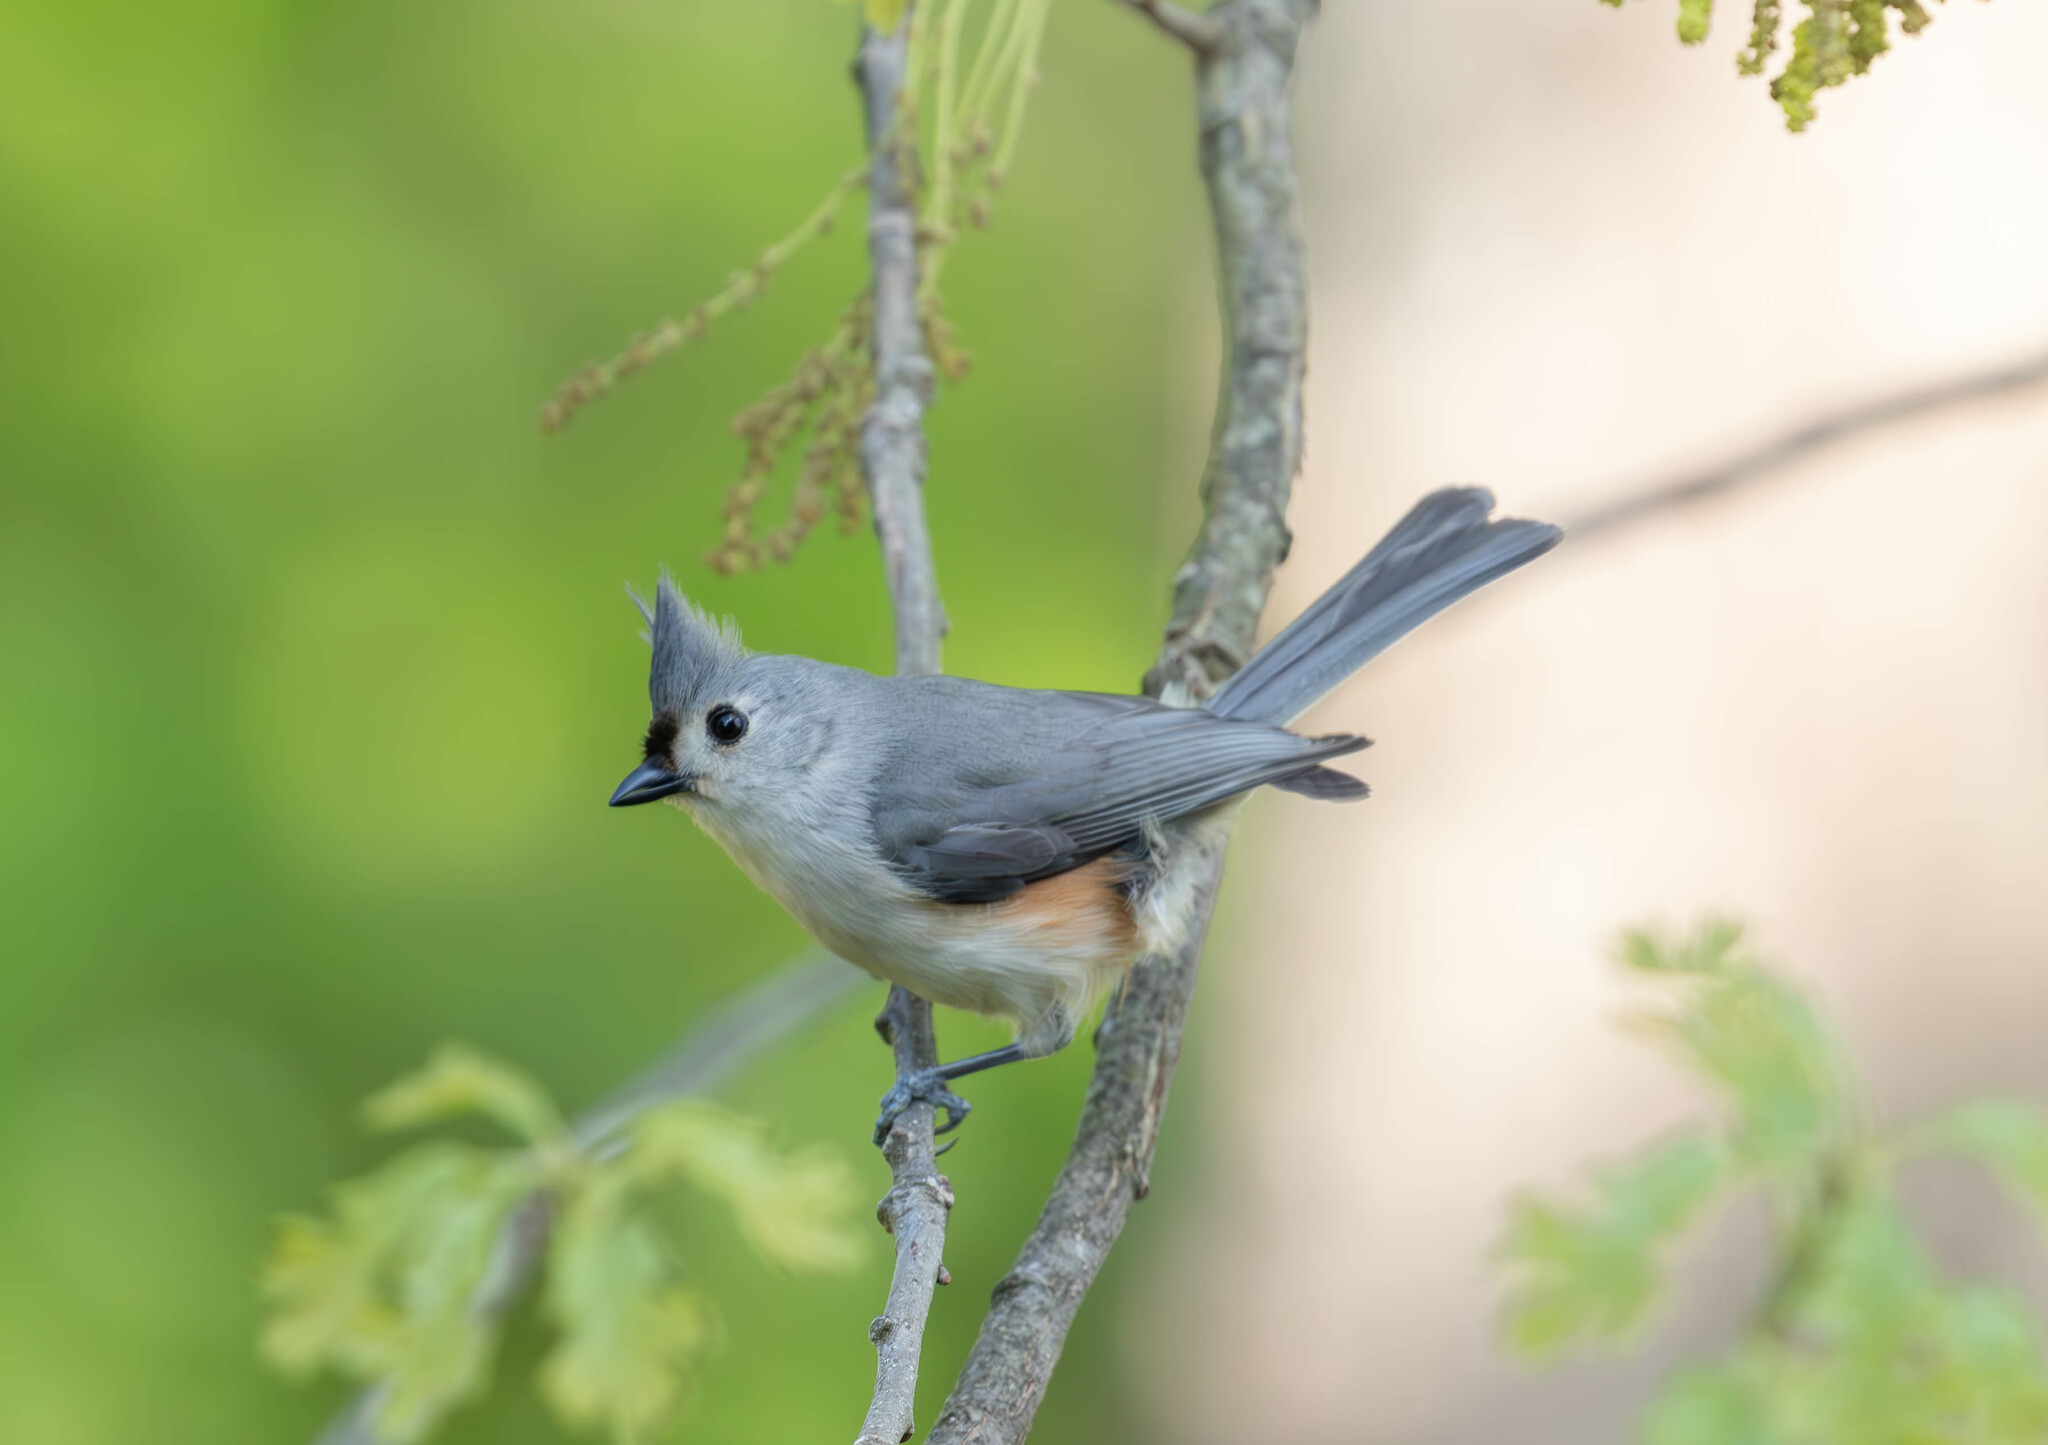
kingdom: Animalia
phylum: Chordata
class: Aves
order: Passeriformes
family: Paridae
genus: Baeolophus
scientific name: Baeolophus bicolor
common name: Tufted titmouse
